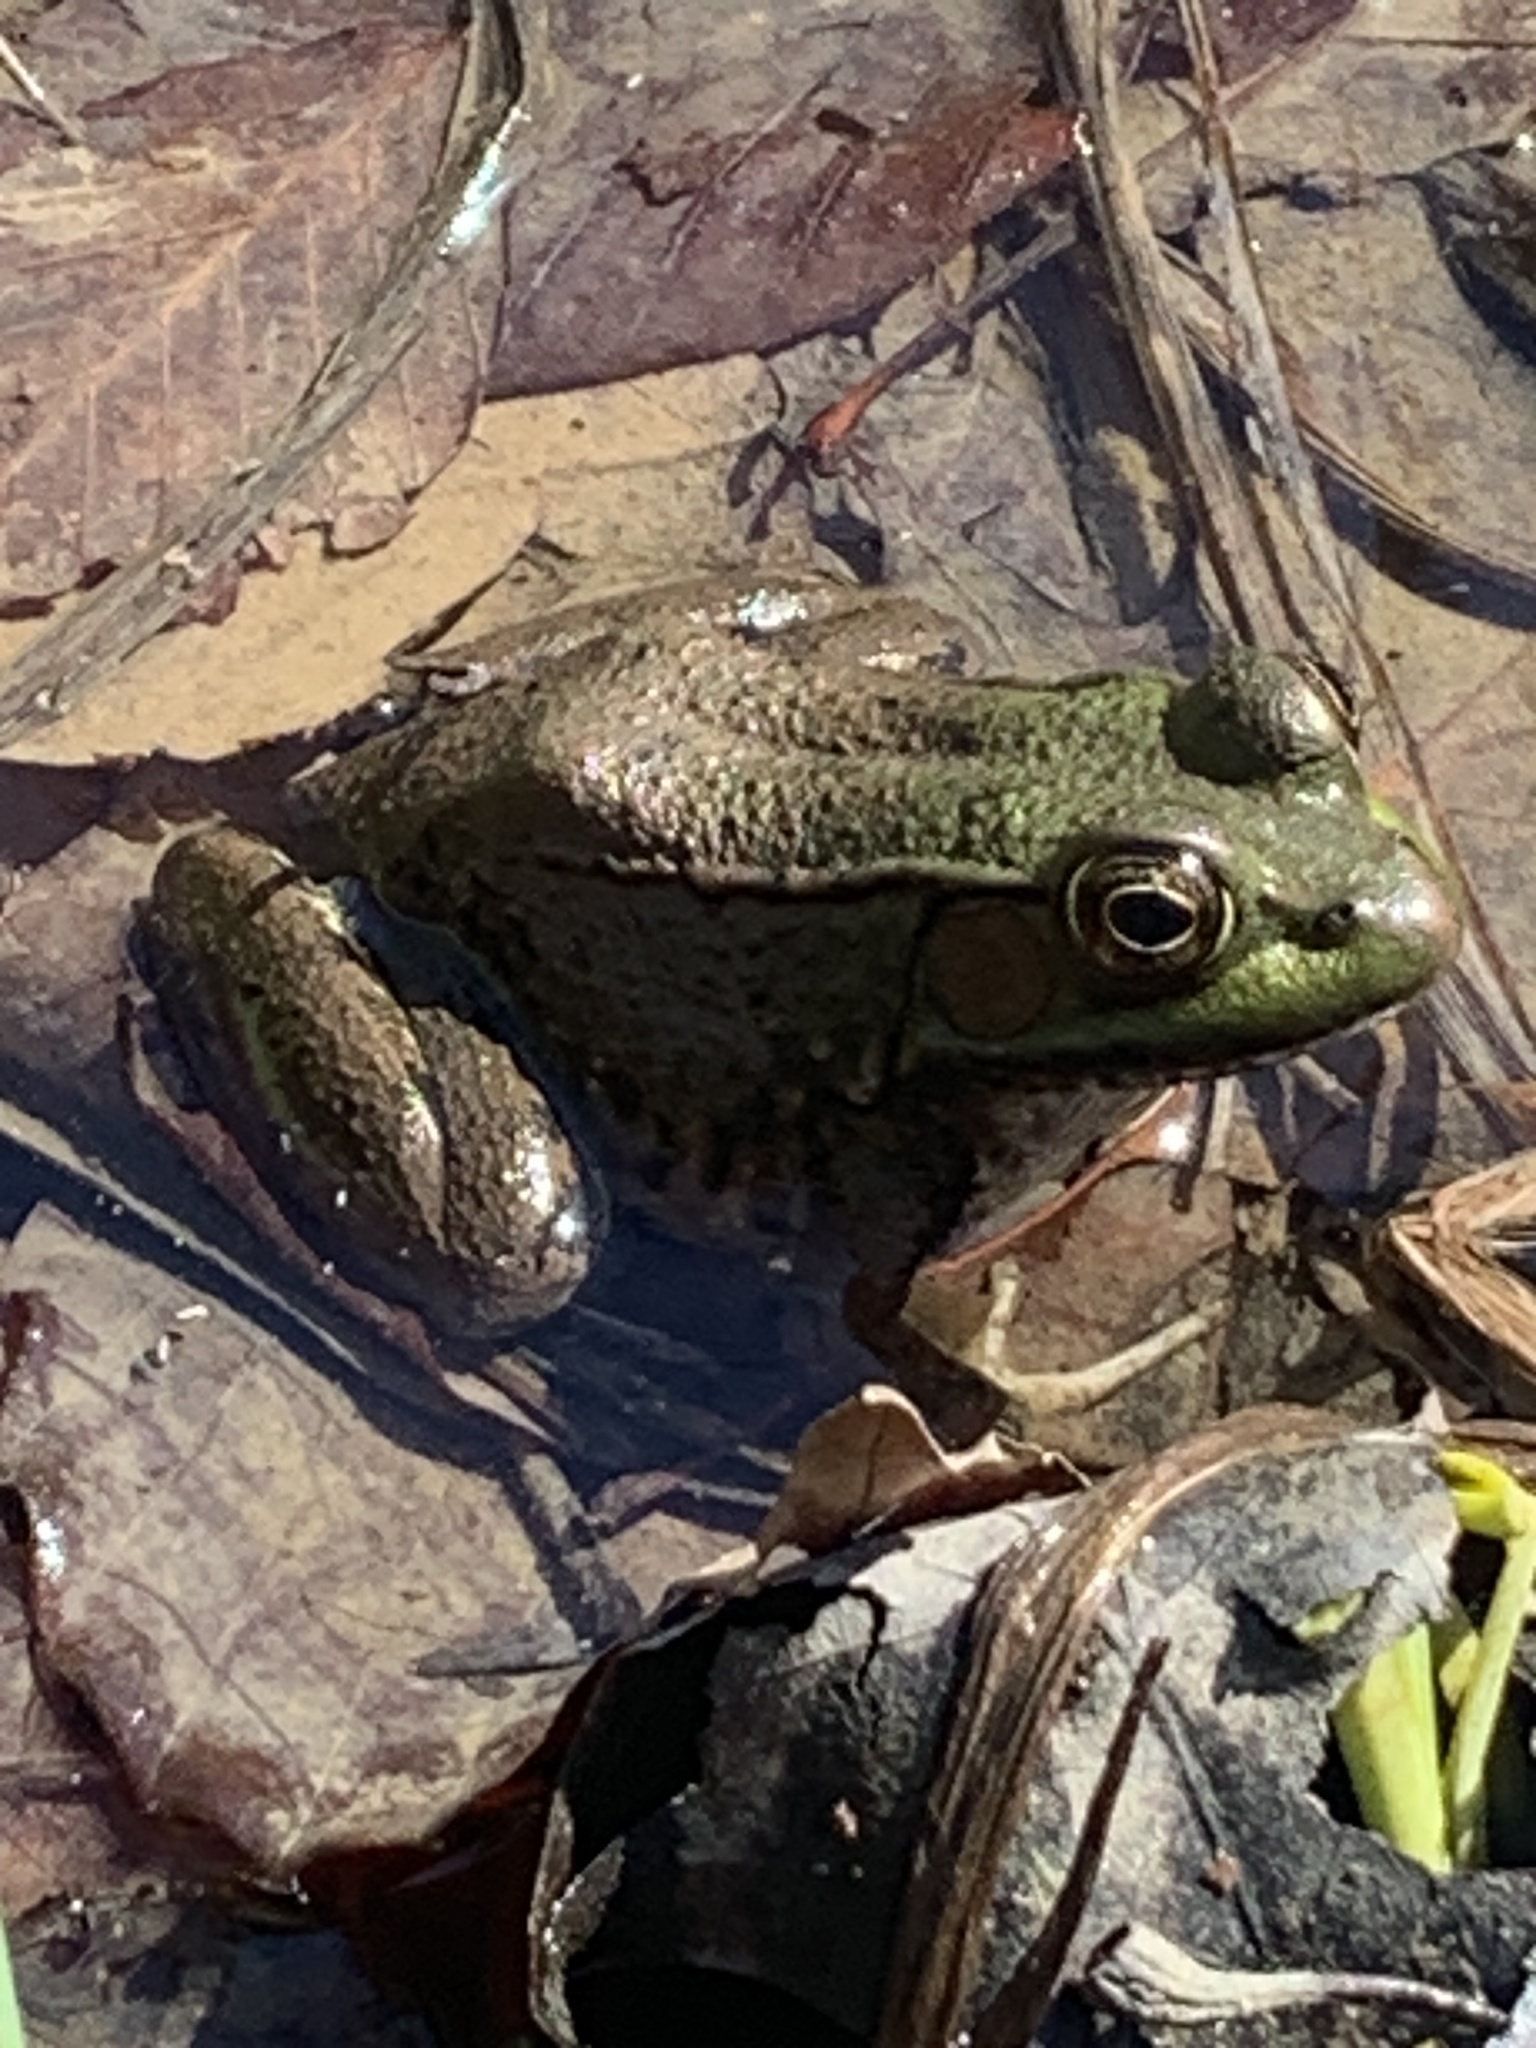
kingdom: Animalia
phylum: Chordata
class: Amphibia
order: Anura
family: Ranidae
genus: Lithobates
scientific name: Lithobates clamitans
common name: Green frog
